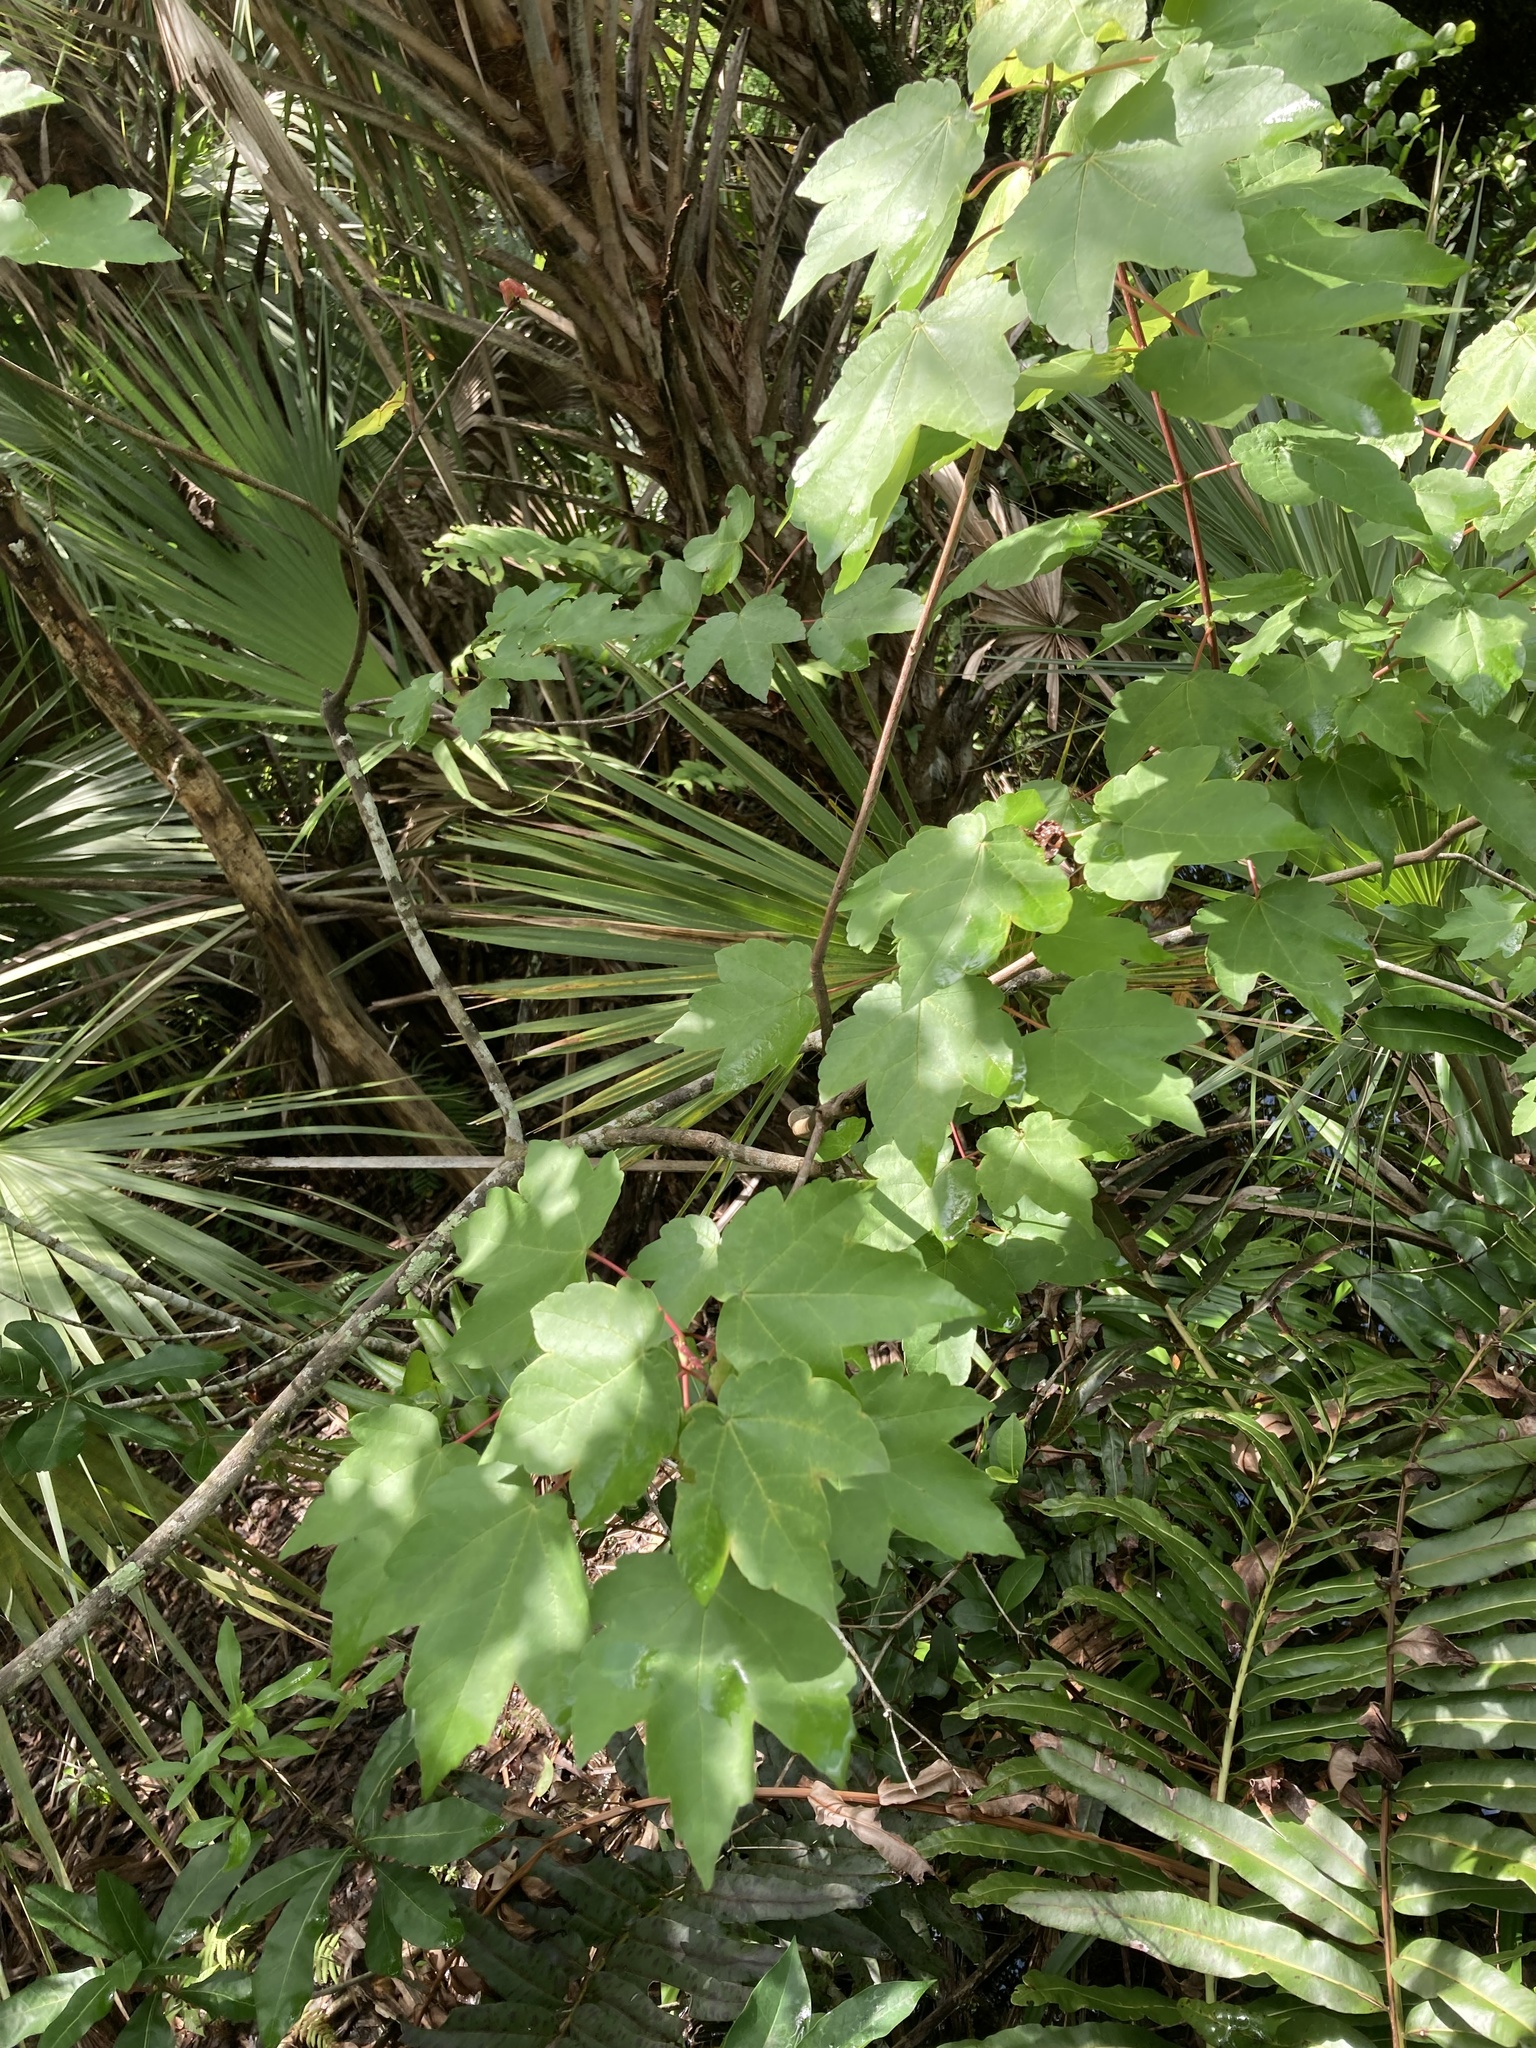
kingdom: Plantae
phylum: Tracheophyta
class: Magnoliopsida
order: Sapindales
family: Sapindaceae
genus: Acer
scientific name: Acer rubrum
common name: Red maple
